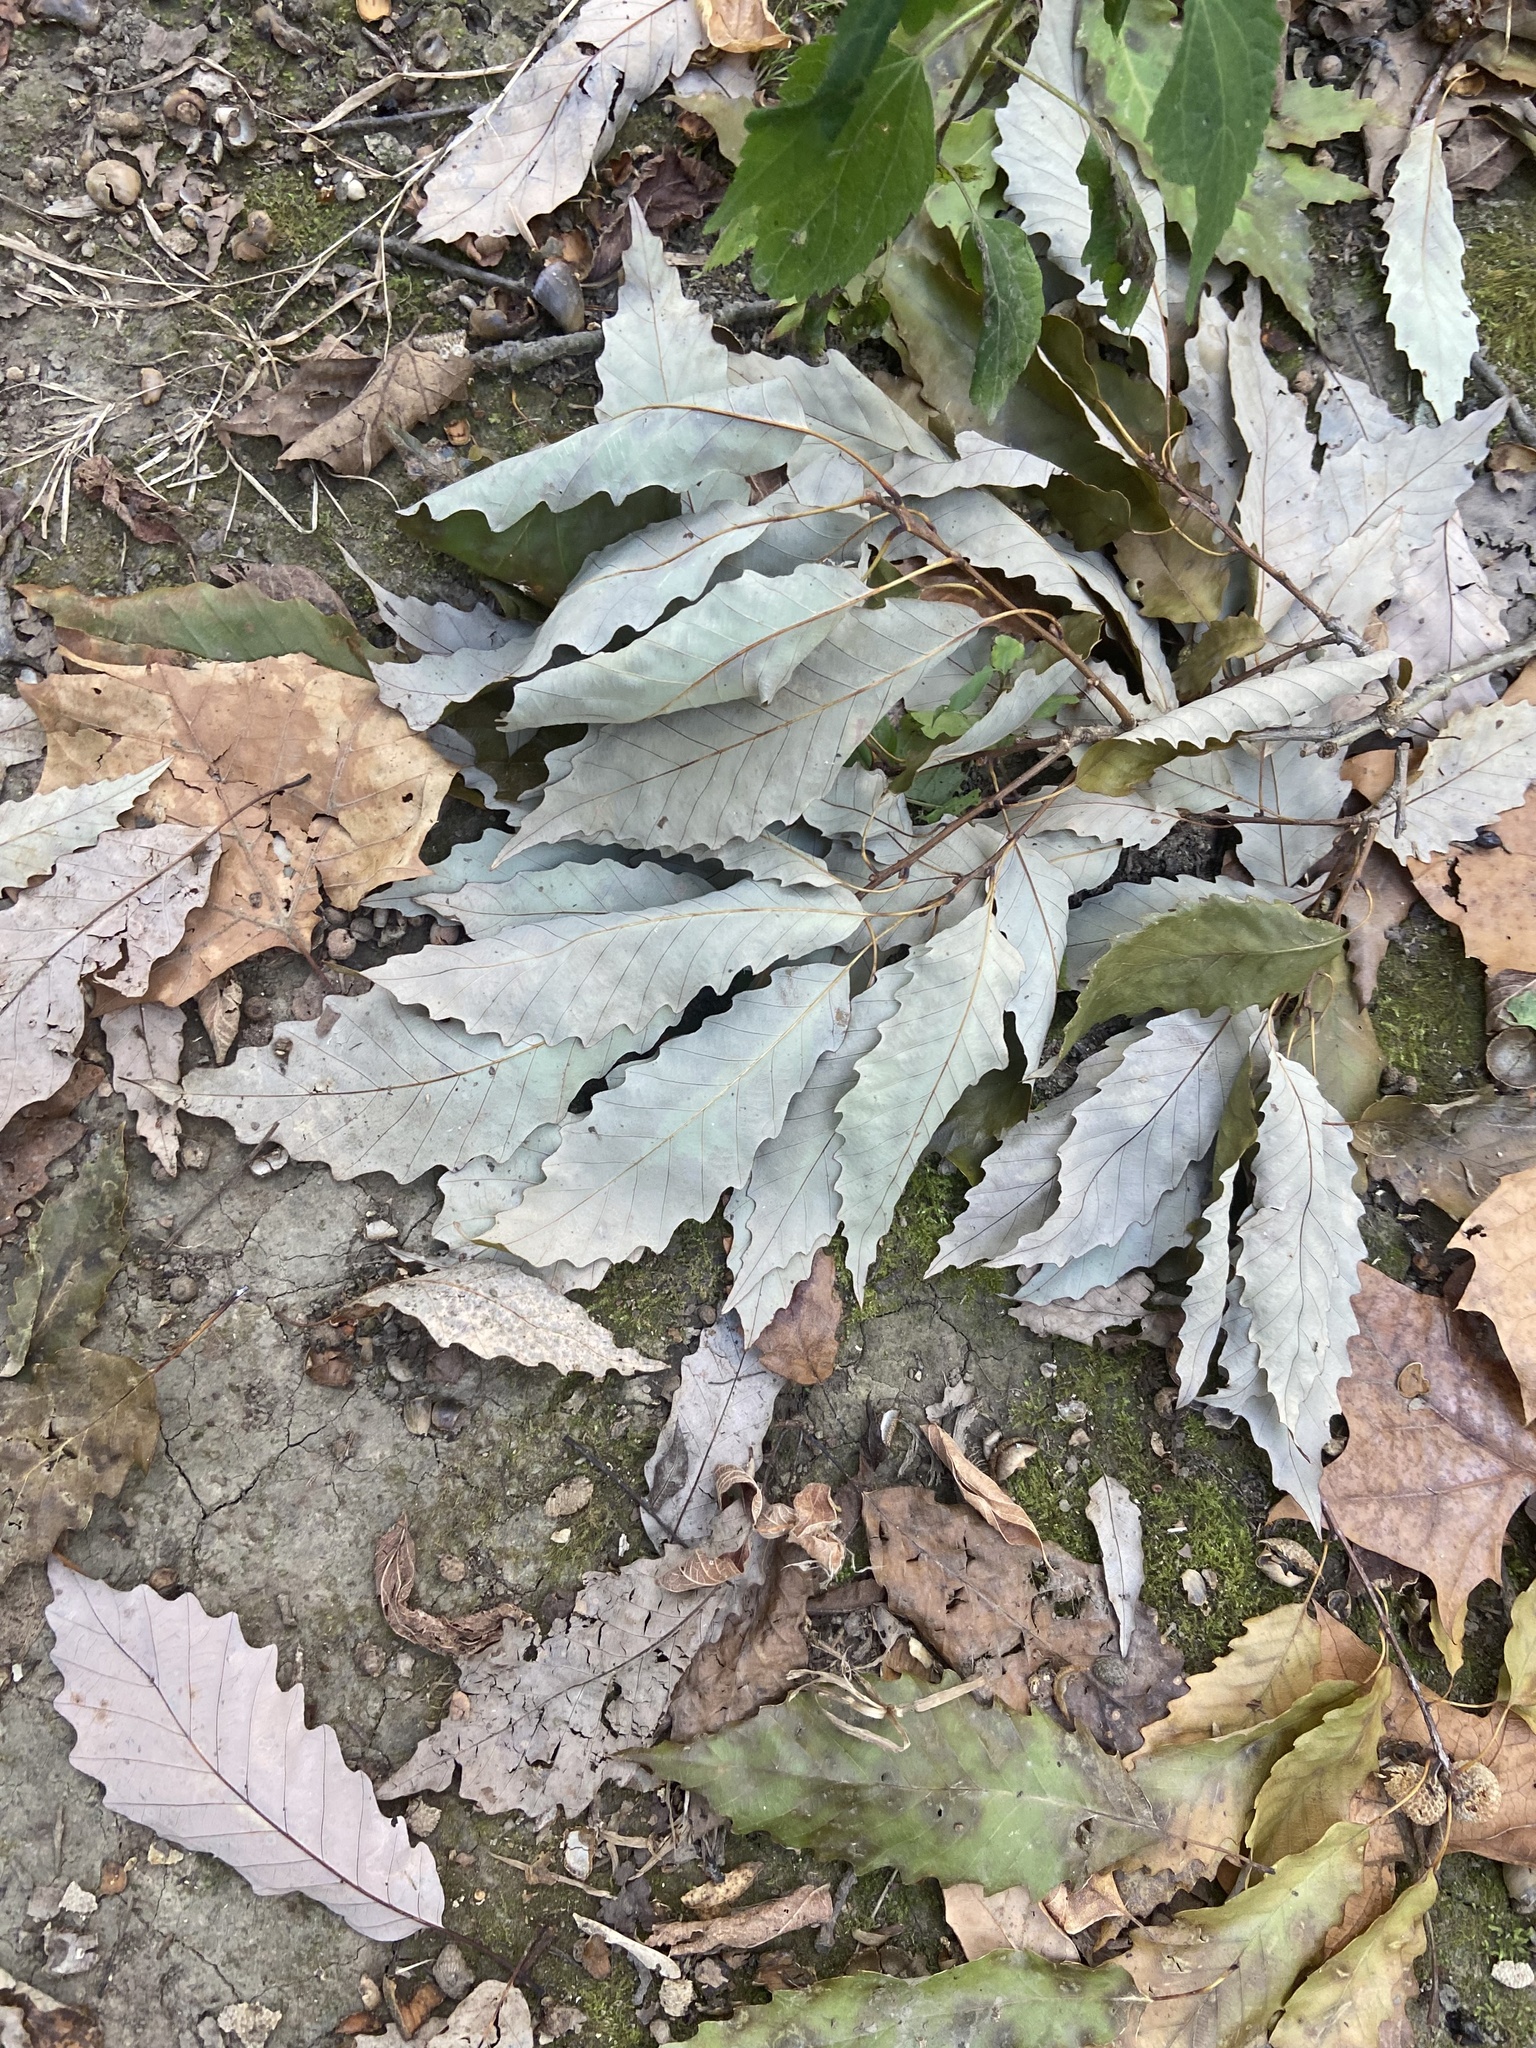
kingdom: Animalia
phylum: Arthropoda
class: Insecta
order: Hymenoptera
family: Cynipidae
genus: Philonix
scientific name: Philonix fulvicollis
